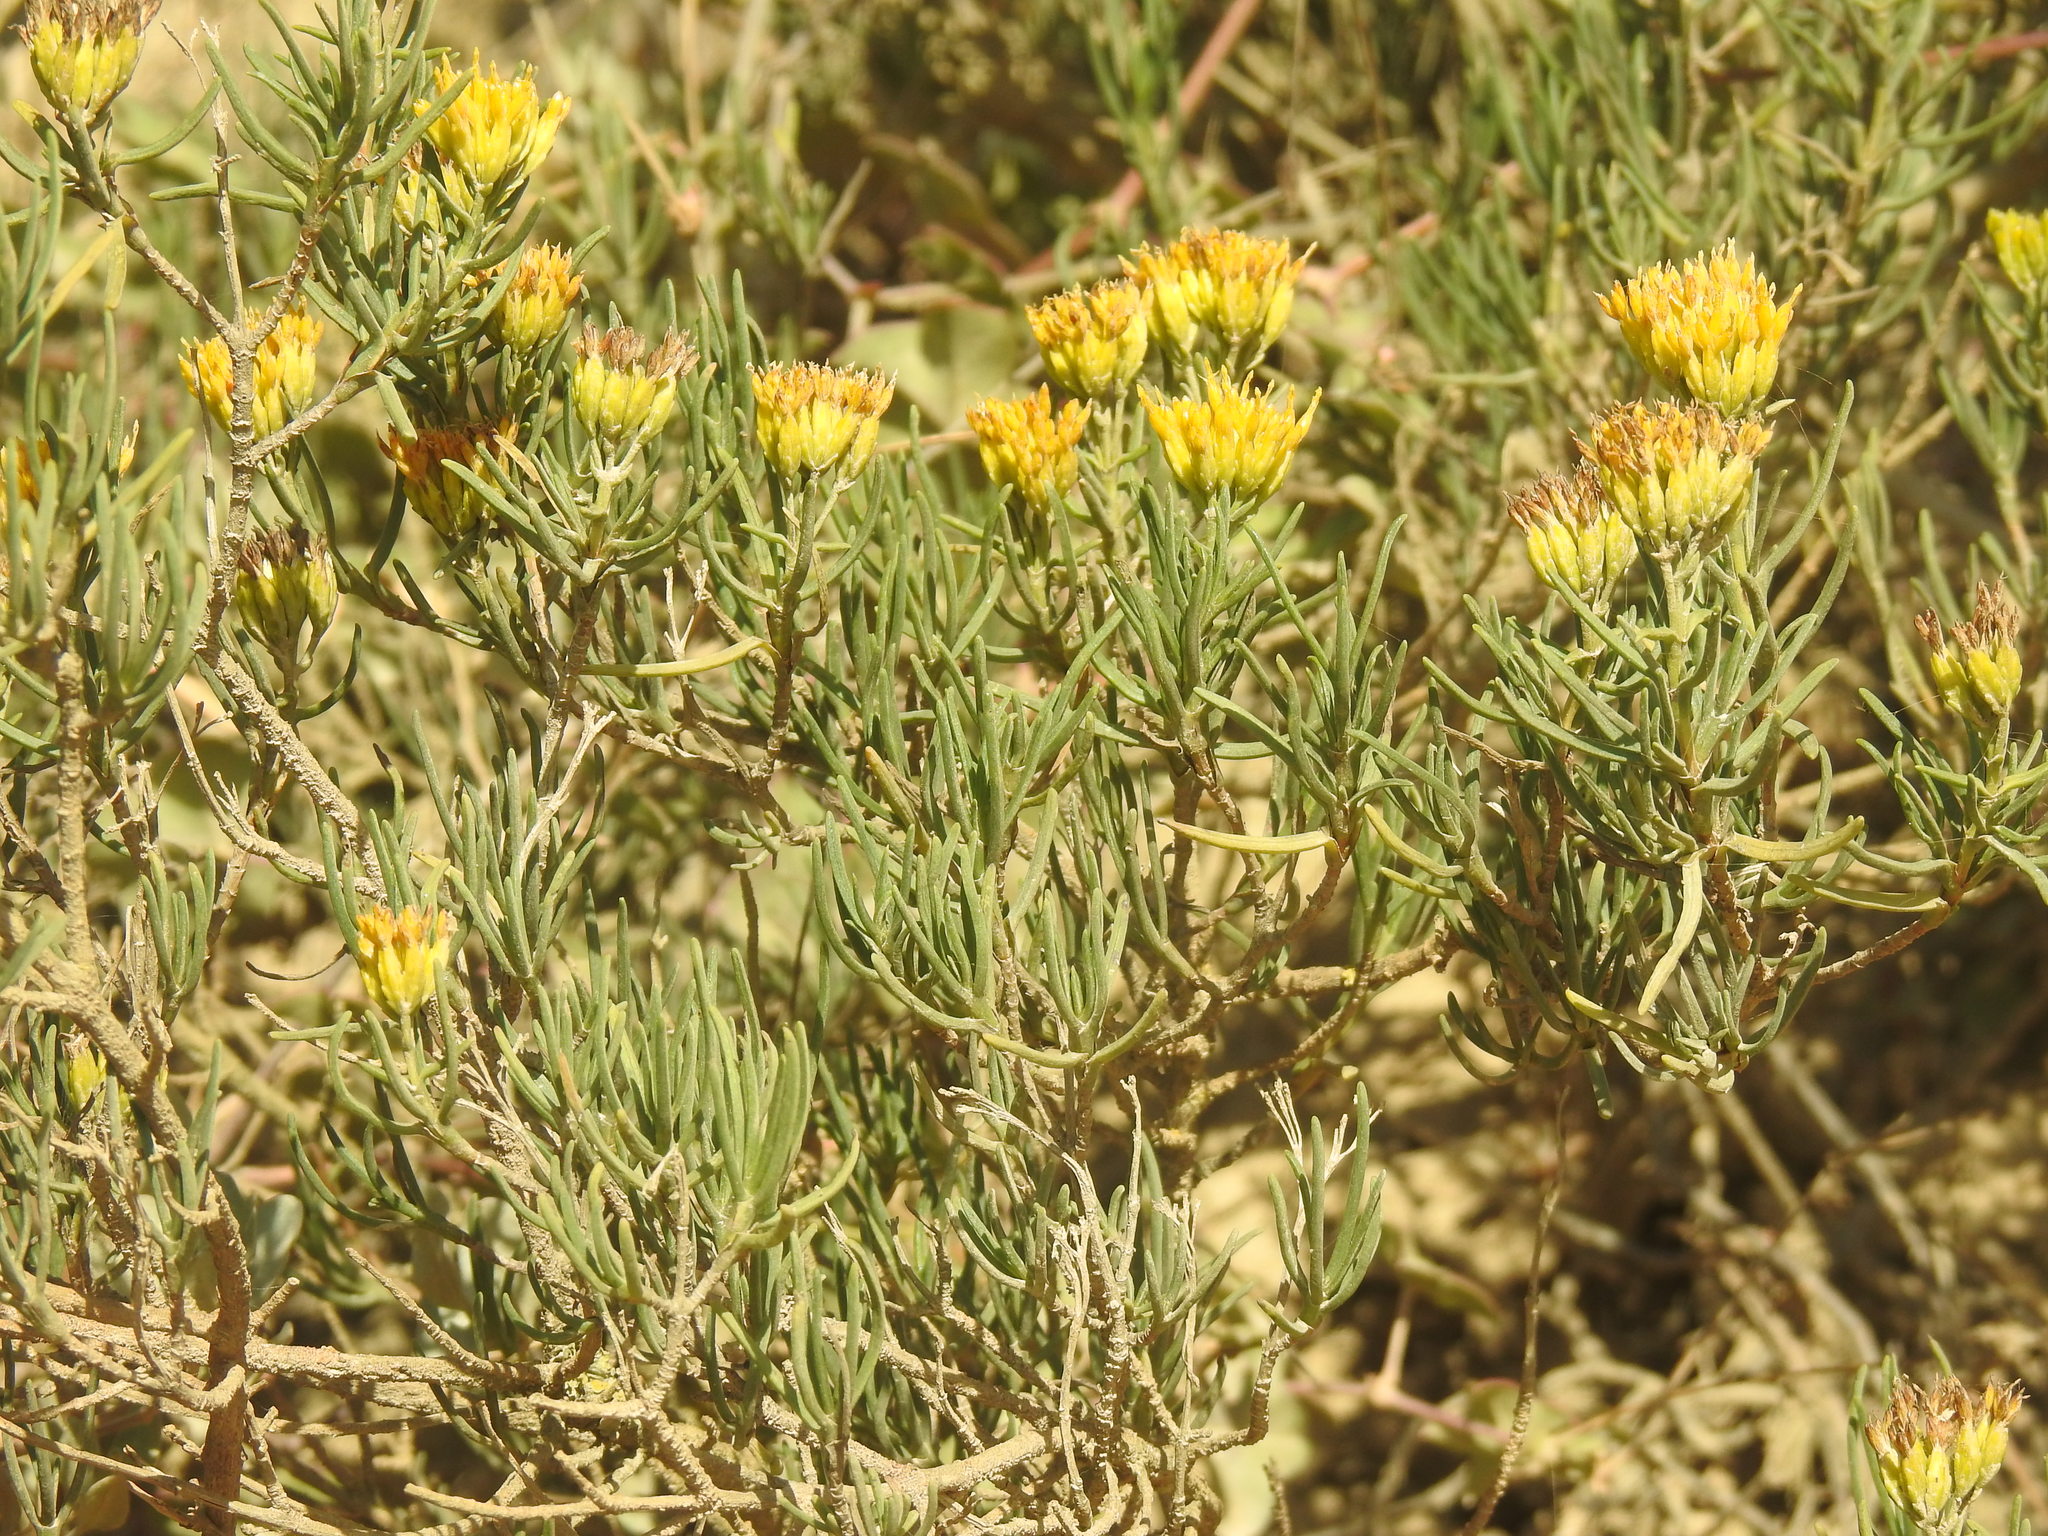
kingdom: Plantae
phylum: Tracheophyta
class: Magnoliopsida
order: Asterales
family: Asteraceae
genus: Pteronia
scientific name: Pteronia paniculata
